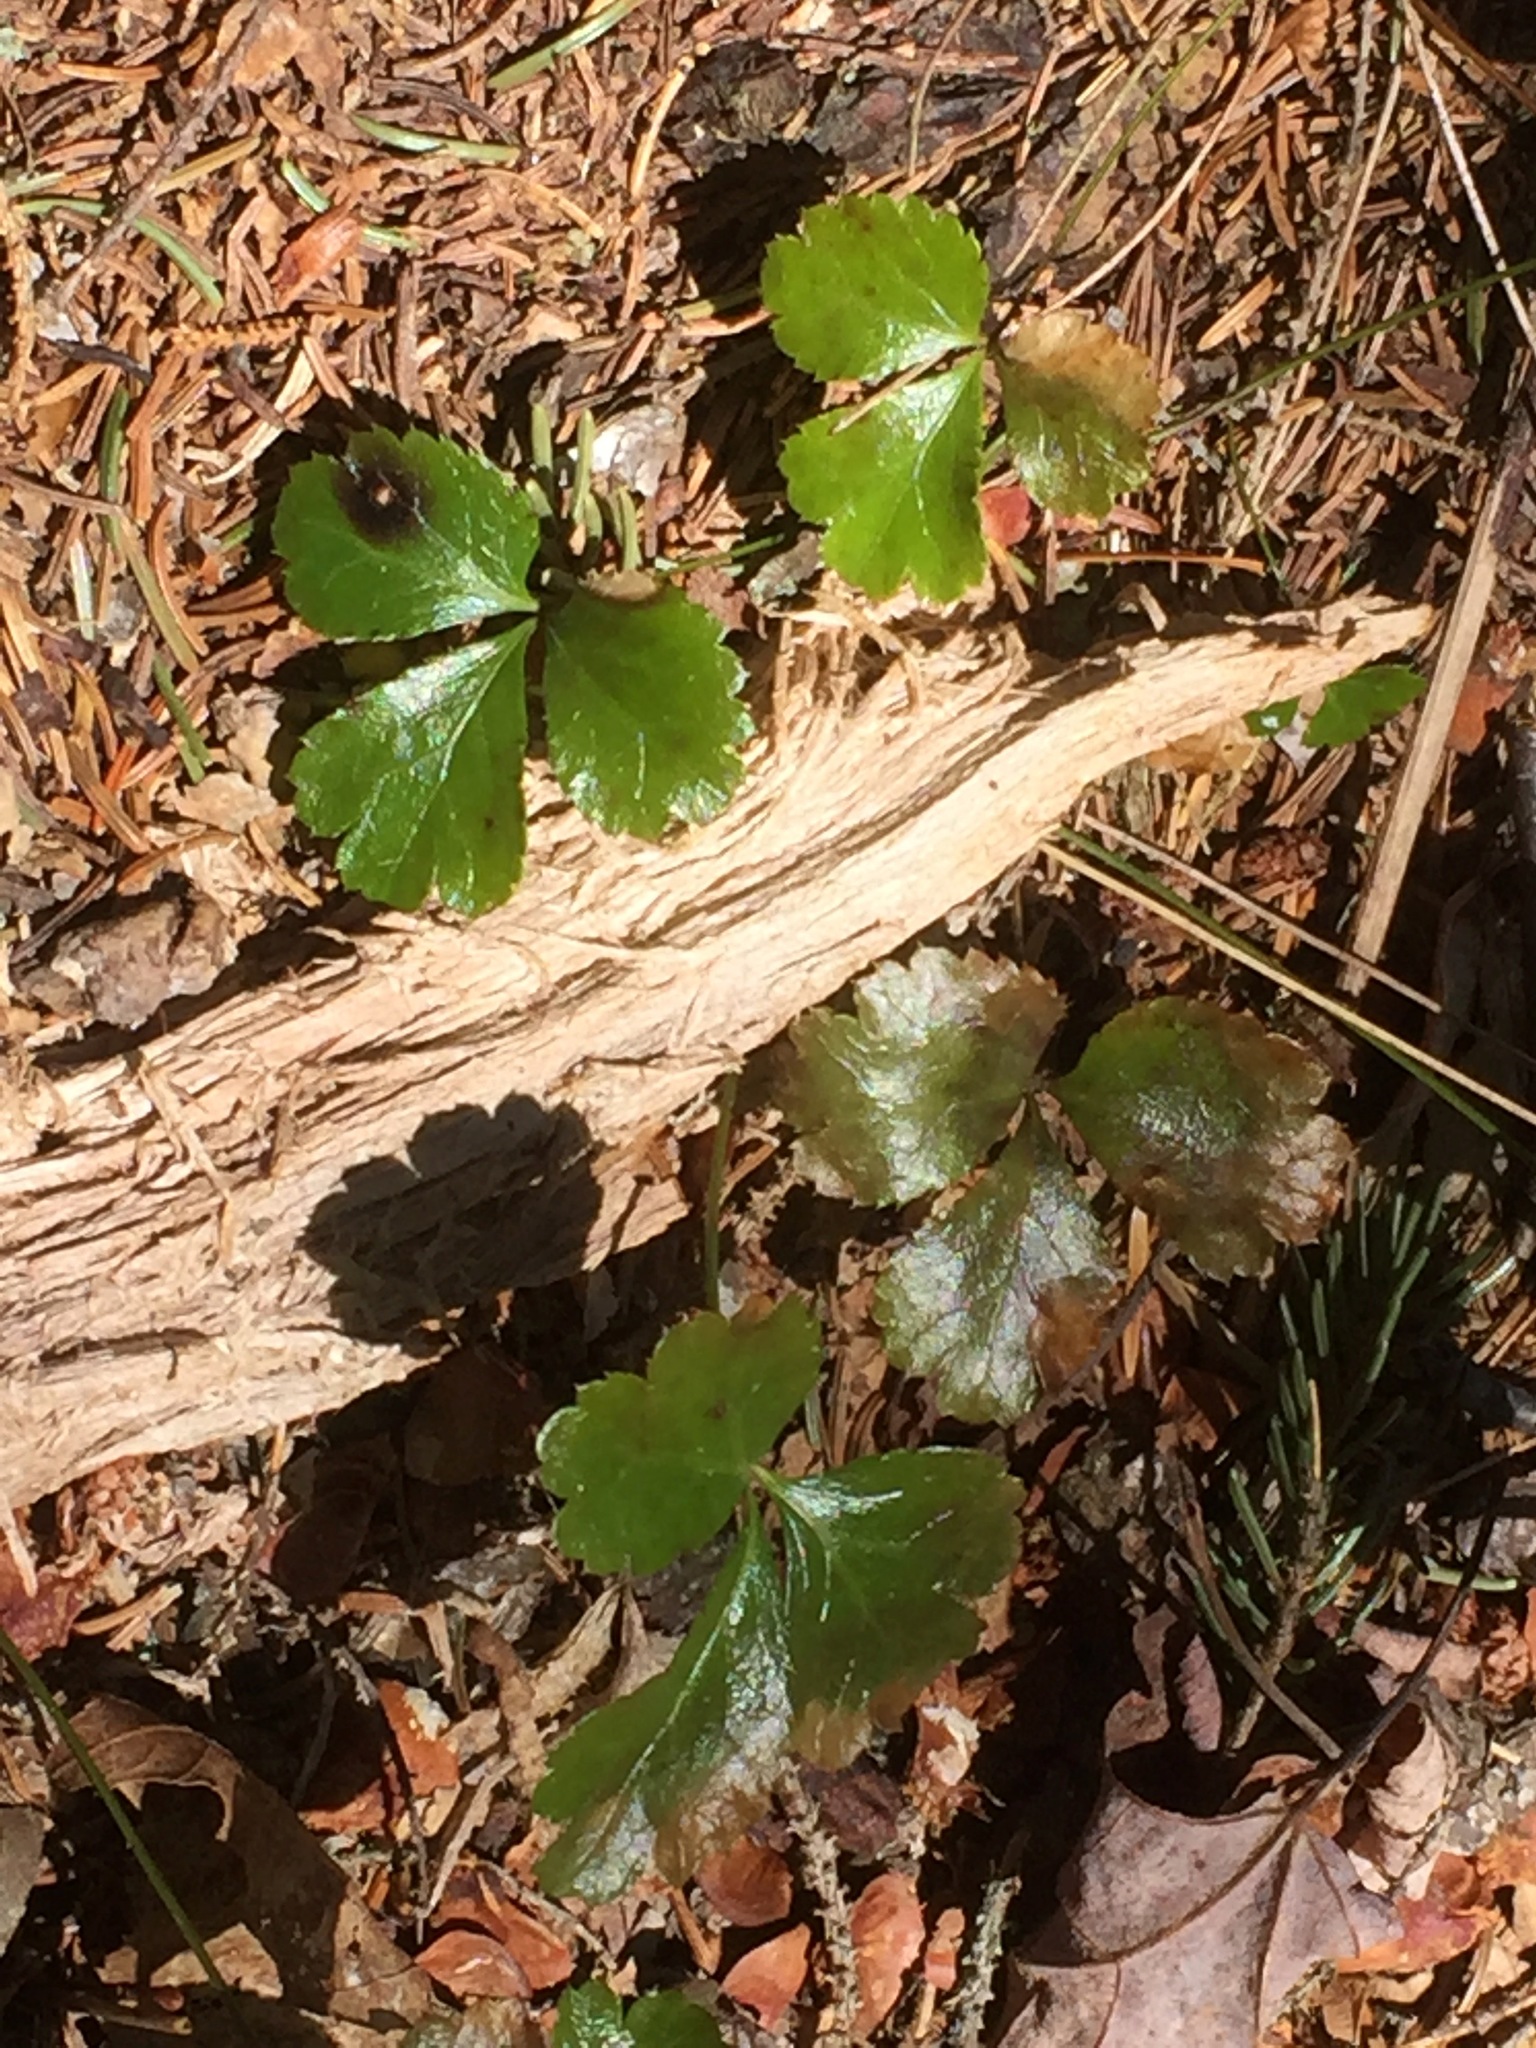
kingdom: Plantae
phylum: Tracheophyta
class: Magnoliopsida
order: Ranunculales
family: Ranunculaceae
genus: Coptis
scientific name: Coptis trifolia
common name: Canker-root
